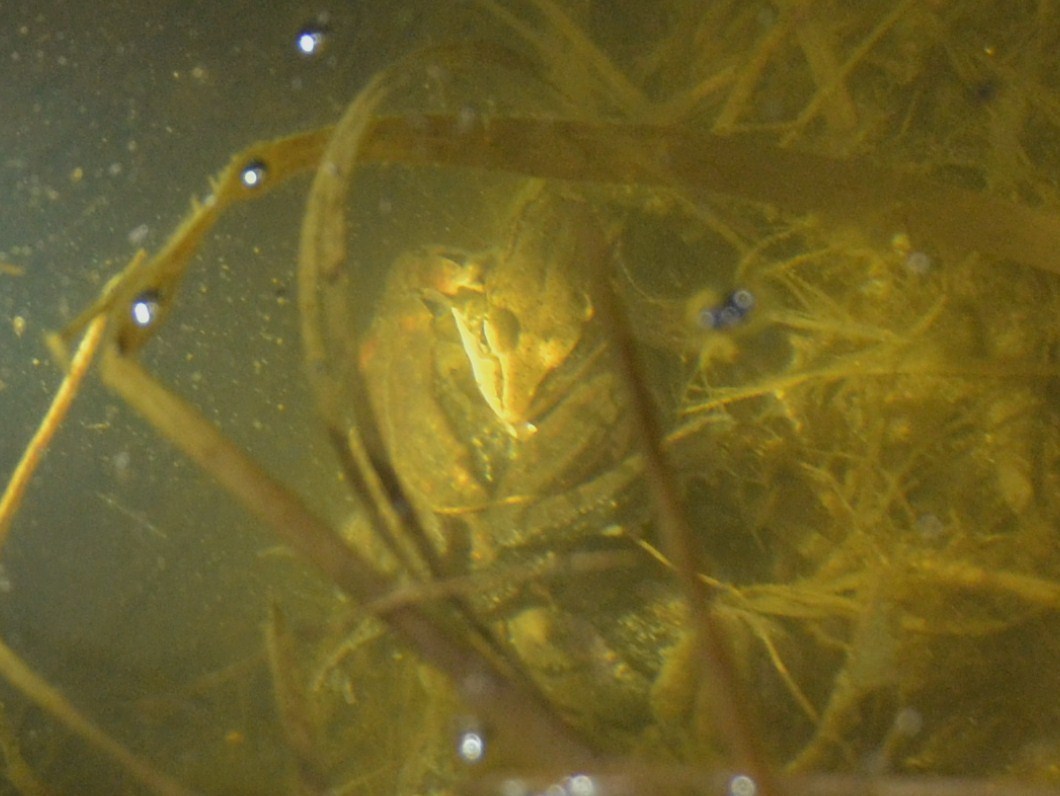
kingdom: Animalia
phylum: Chordata
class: Amphibia
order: Anura
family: Ranidae
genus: Lithobates
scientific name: Lithobates sylvaticus
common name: Wood frog
